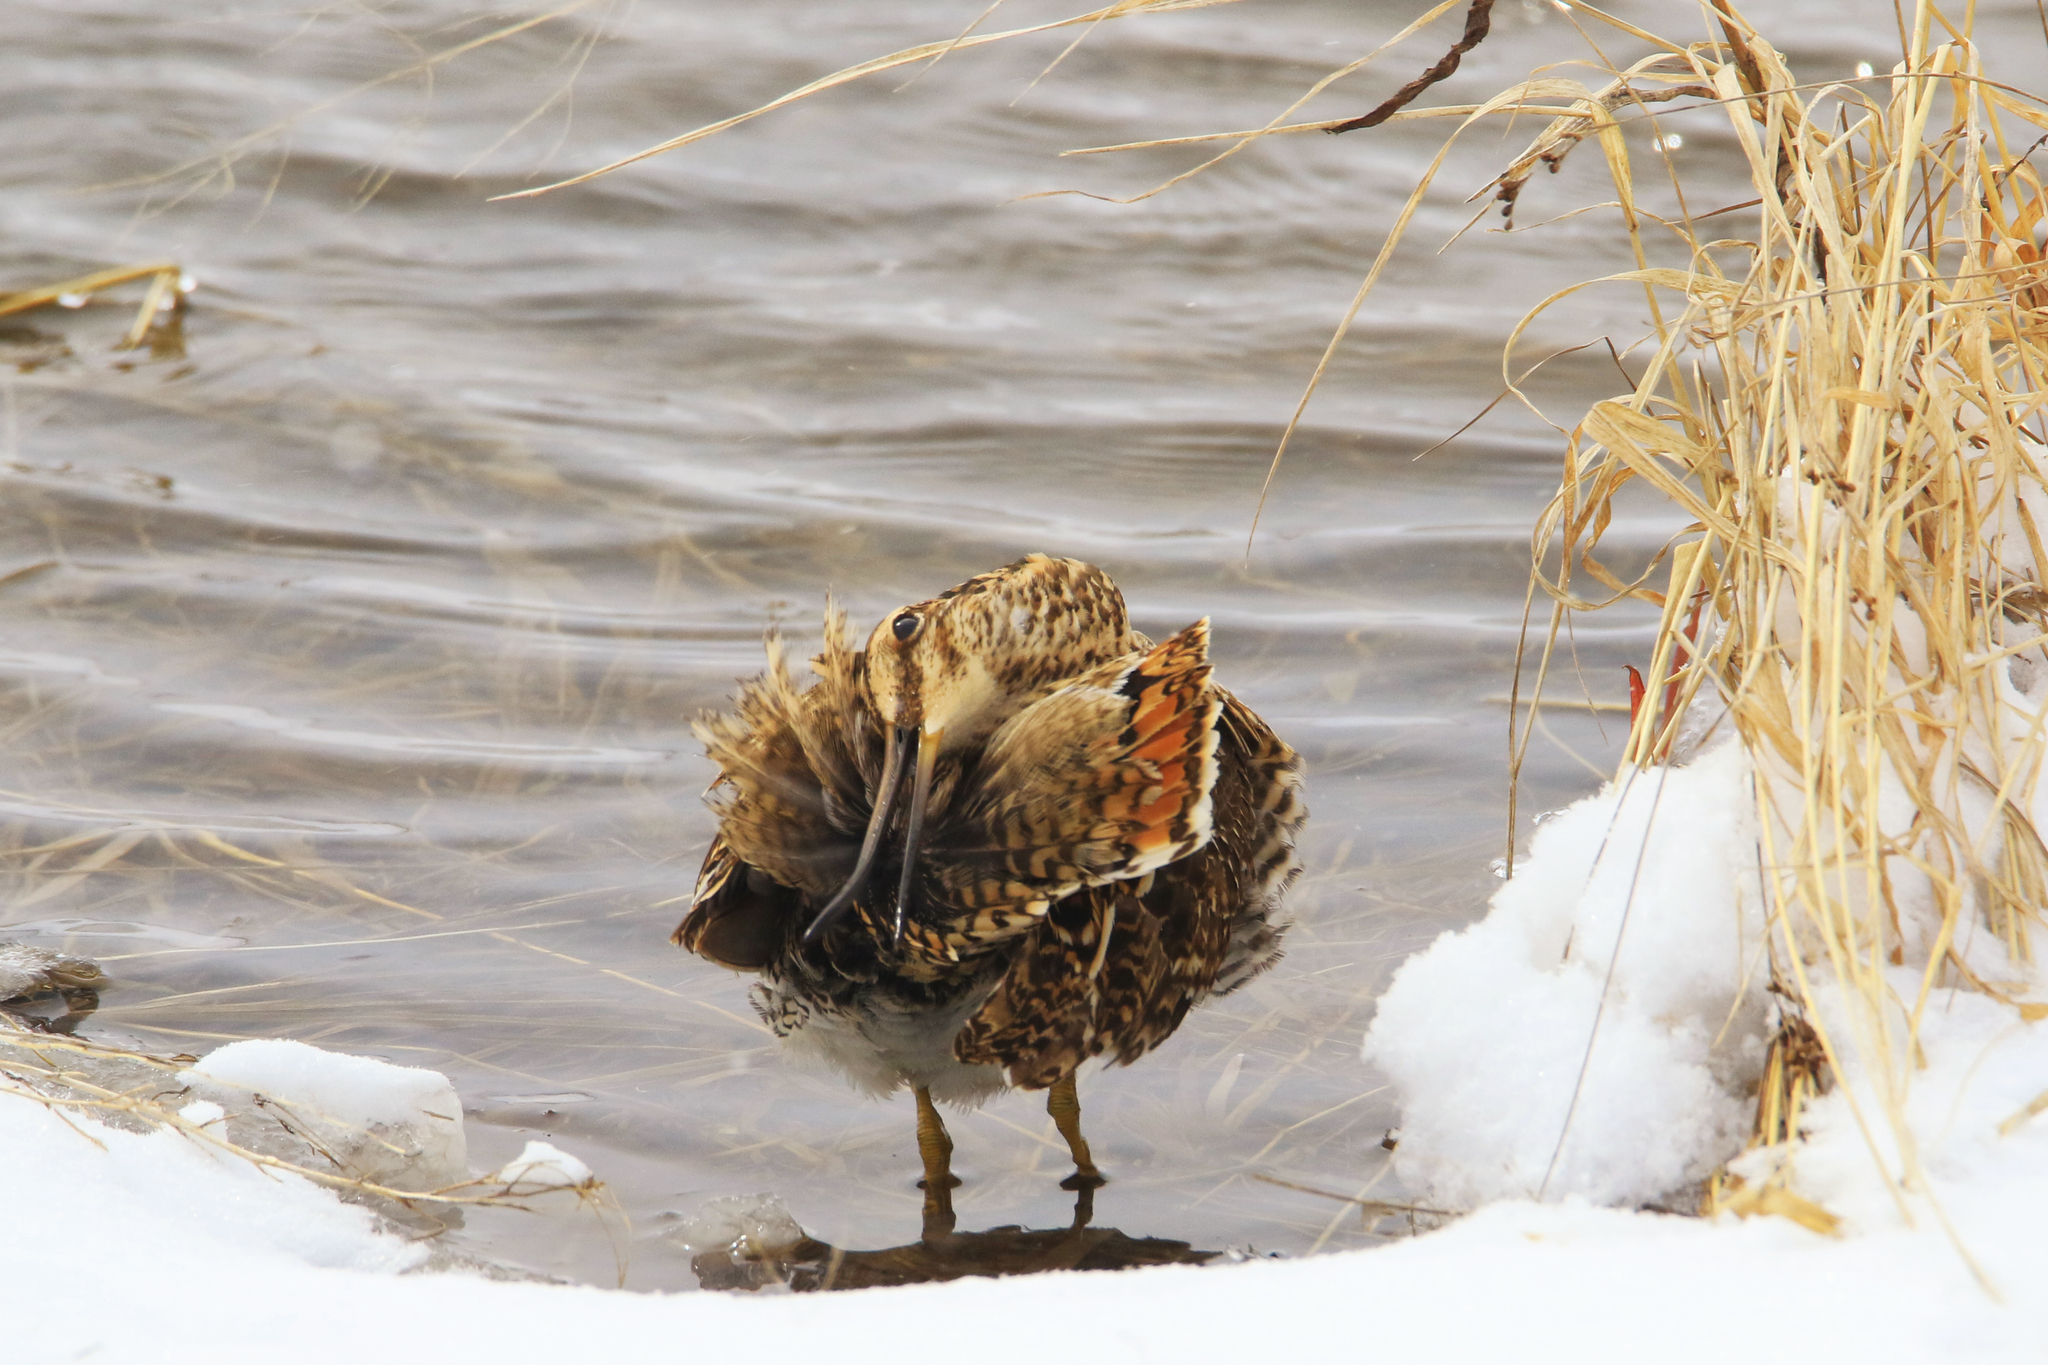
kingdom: Animalia
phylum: Chordata
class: Aves
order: Charadriiformes
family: Scolopacidae
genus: Gallinago
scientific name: Gallinago gallinago
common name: Common snipe
